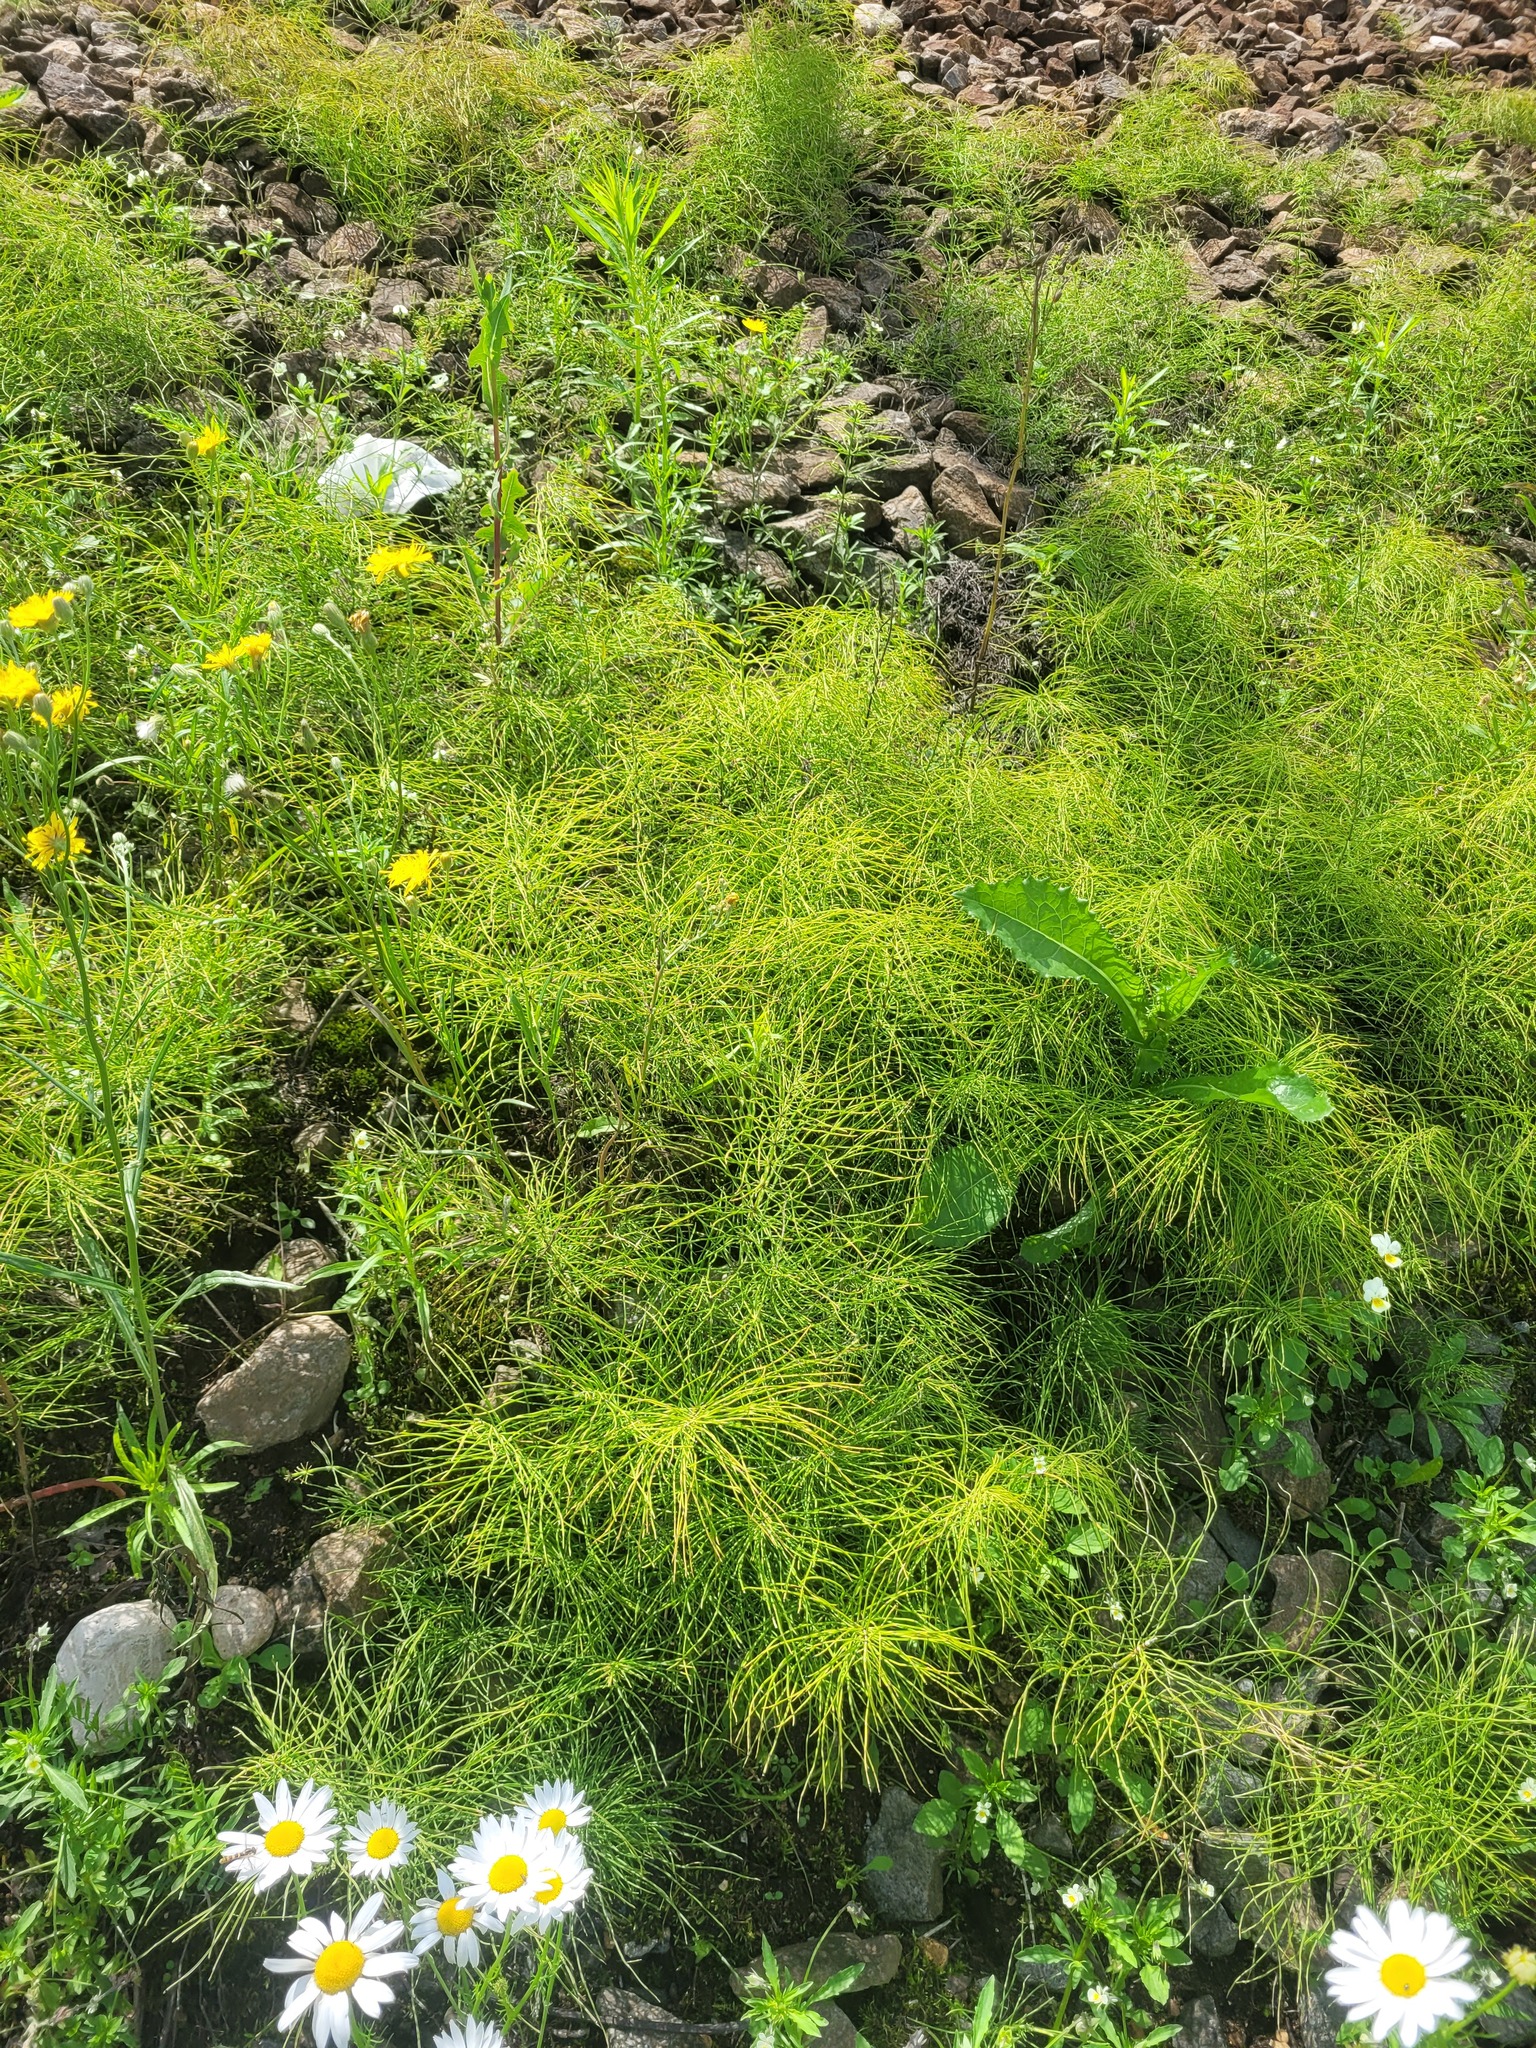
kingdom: Plantae
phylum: Tracheophyta
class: Polypodiopsida
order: Equisetales
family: Equisetaceae
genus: Equisetum
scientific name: Equisetum pratense
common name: Meadow horsetail
